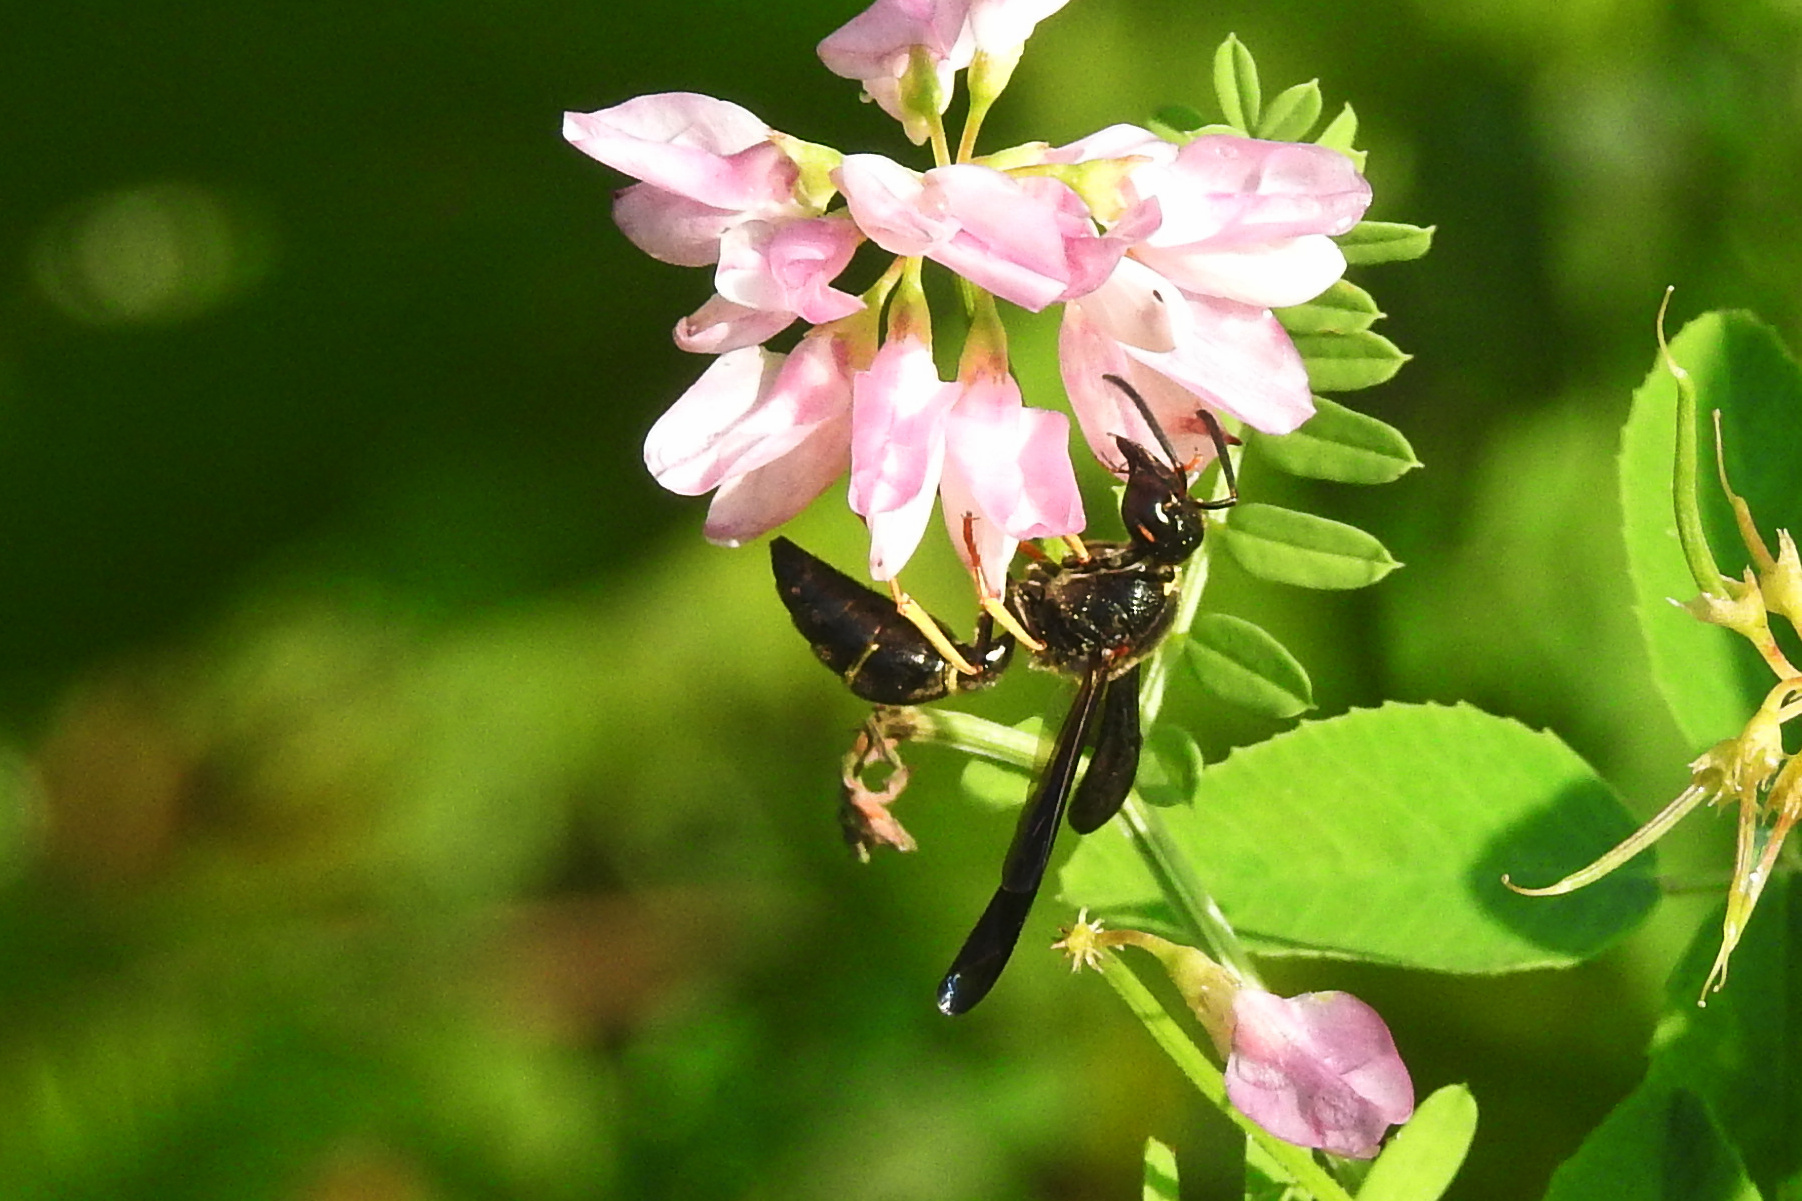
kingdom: Animalia
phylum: Arthropoda
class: Insecta
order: Hymenoptera
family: Eumenidae
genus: Parazumia
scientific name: Parazumia symmorpha
